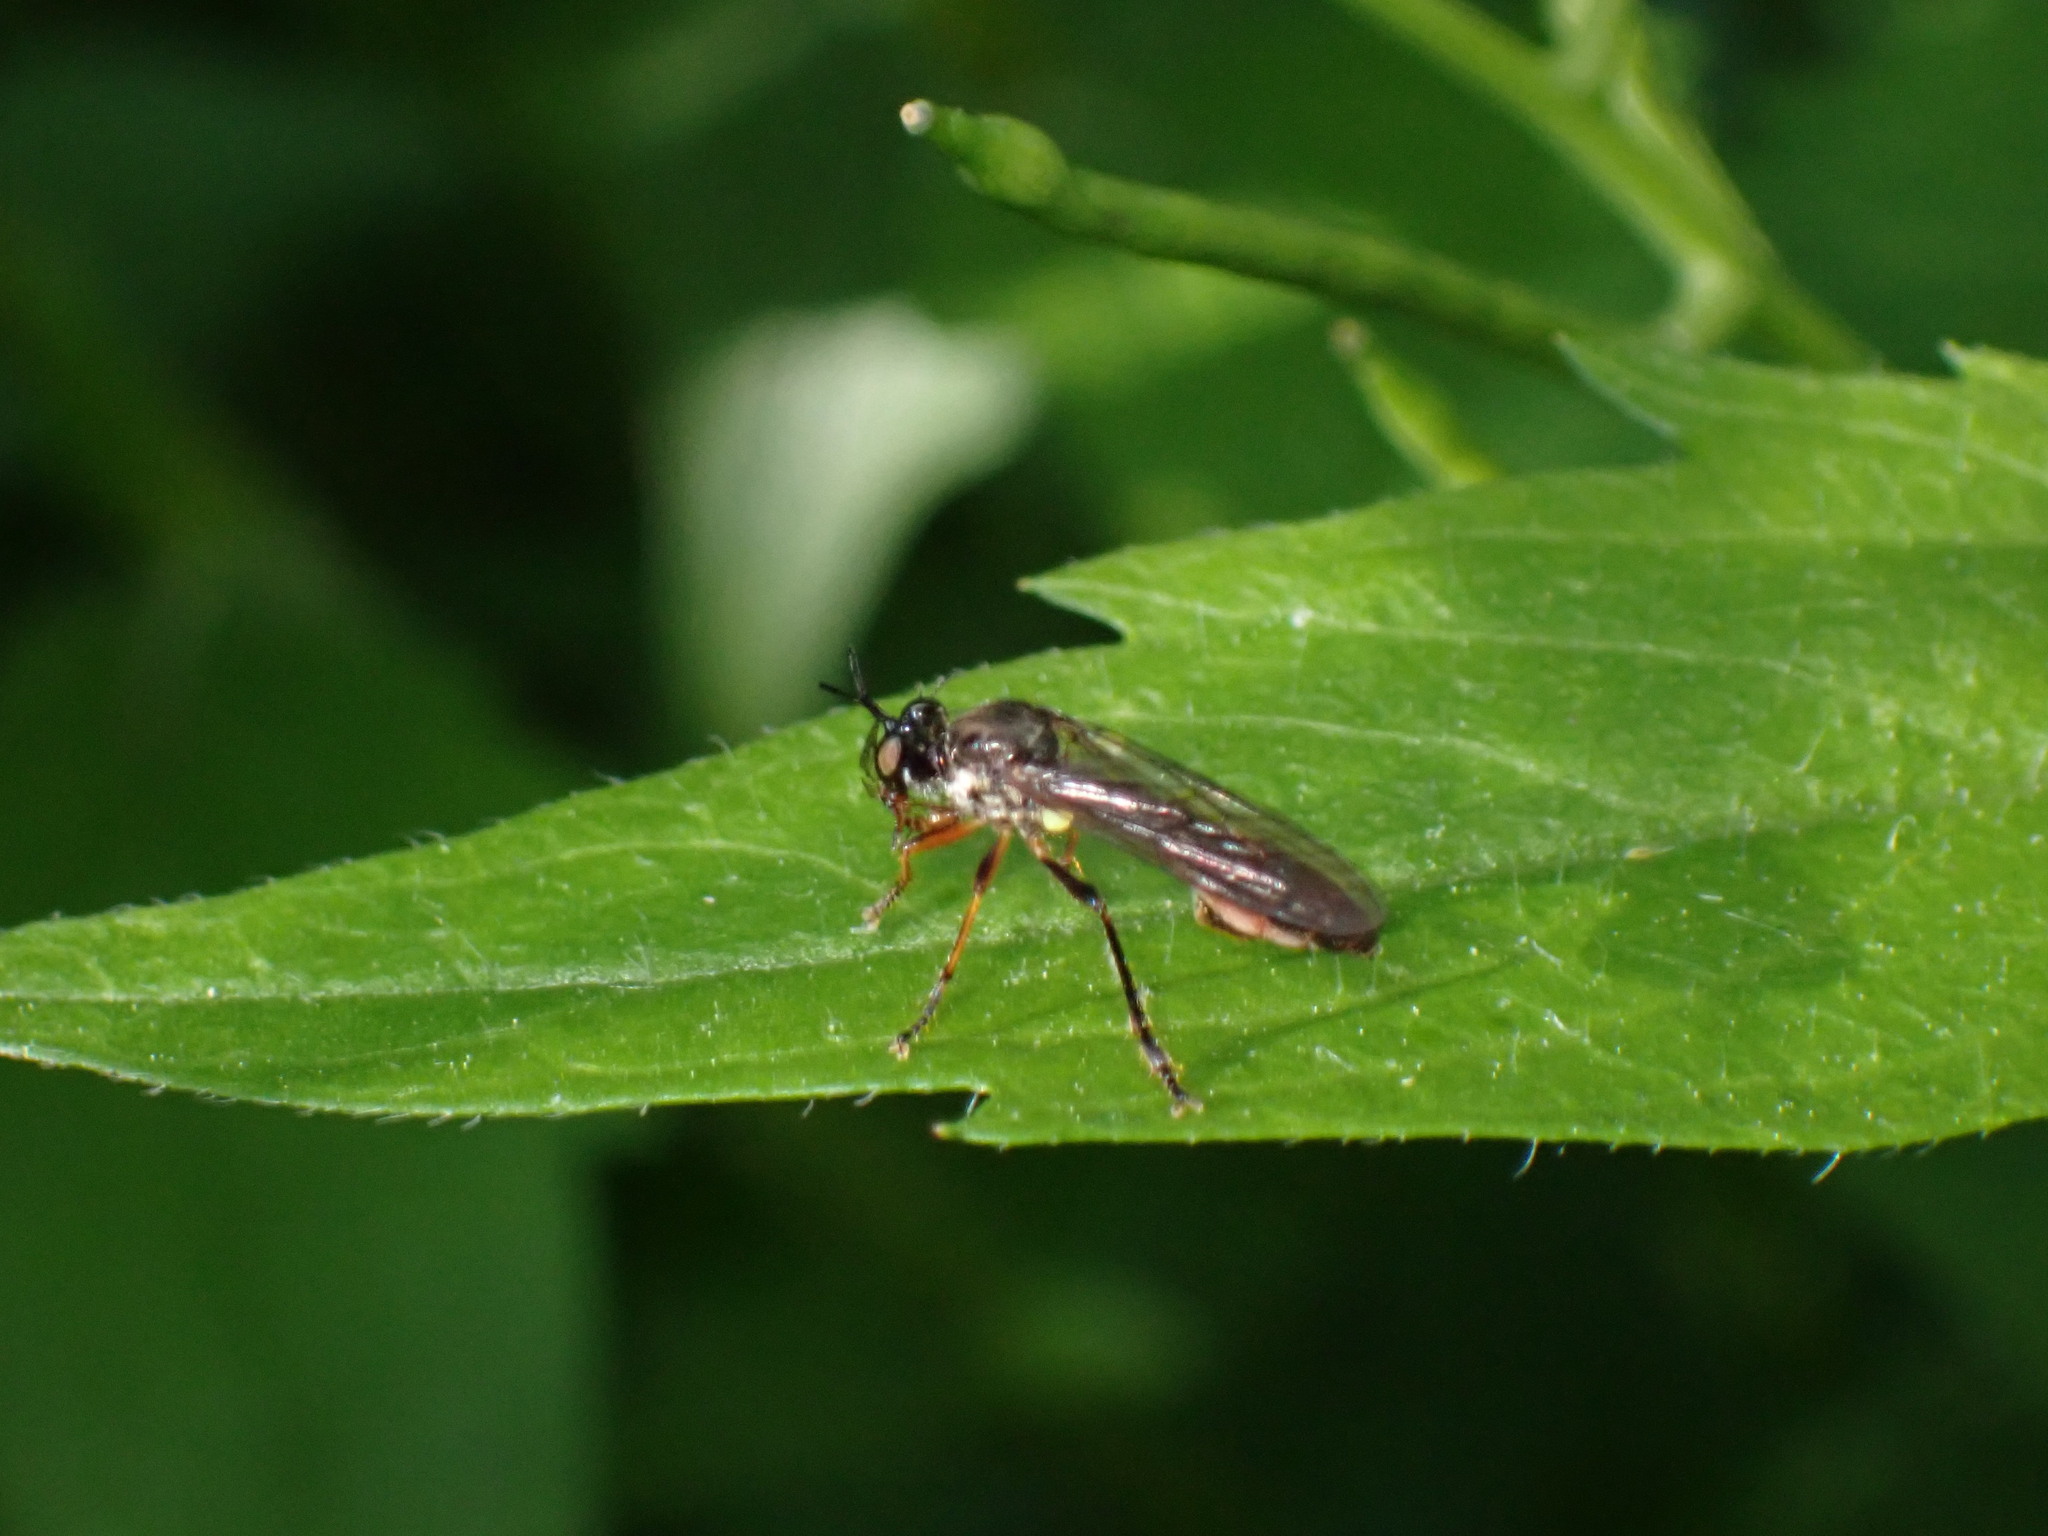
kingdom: Animalia
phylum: Arthropoda
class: Insecta
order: Diptera
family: Asilidae
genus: Dioctria
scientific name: Dioctria hyalipennis
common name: Stripe-legged robberfly
